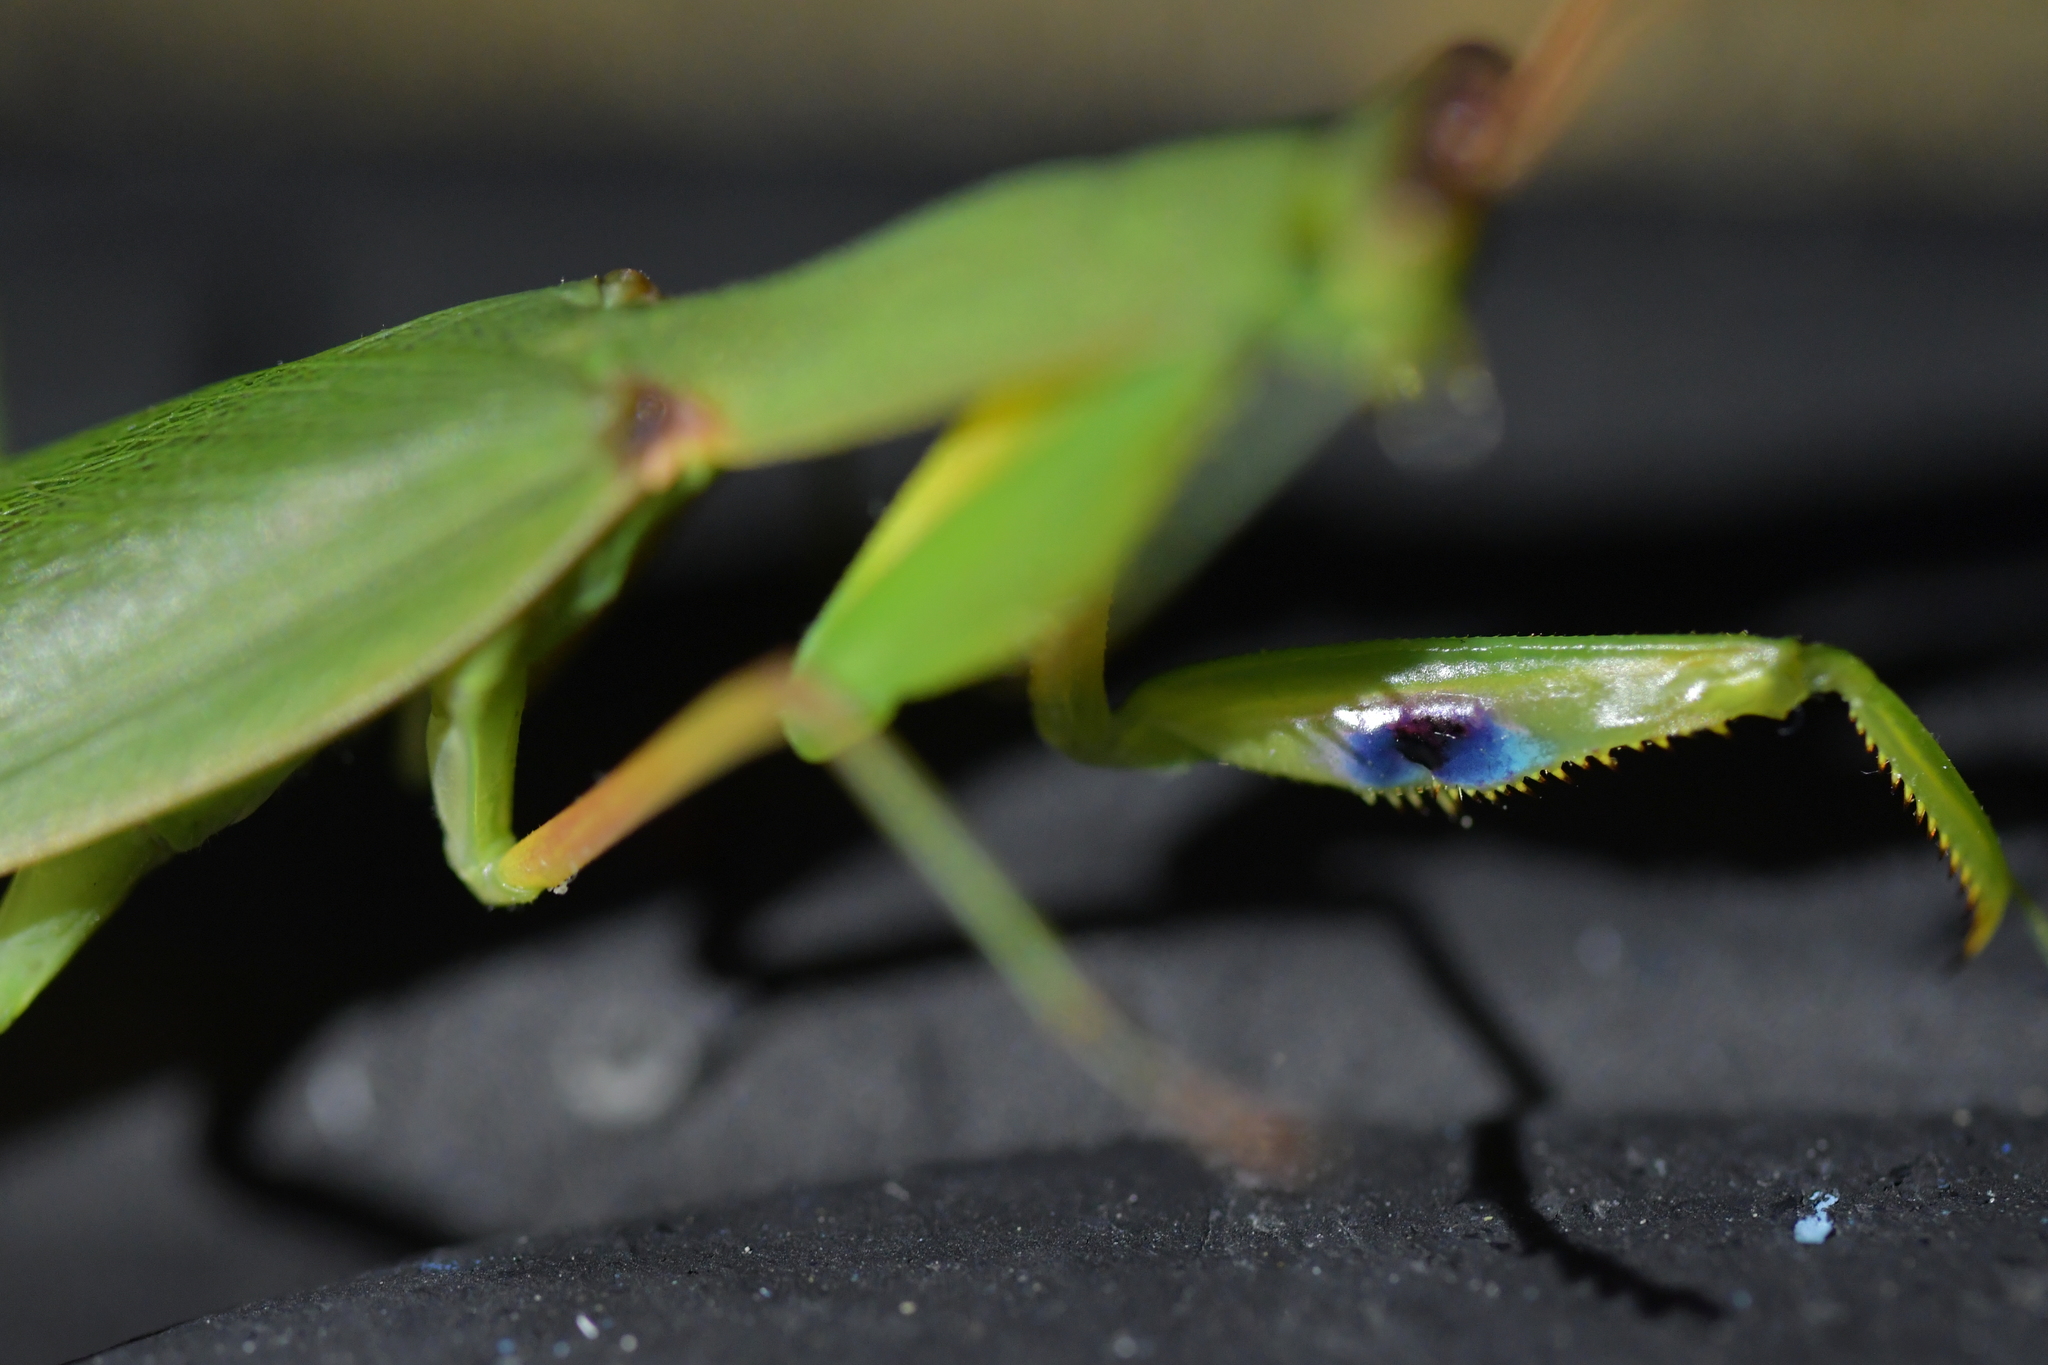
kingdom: Animalia
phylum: Arthropoda
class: Insecta
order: Mantodea
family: Mantidae
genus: Orthodera
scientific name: Orthodera novaezealandiae
